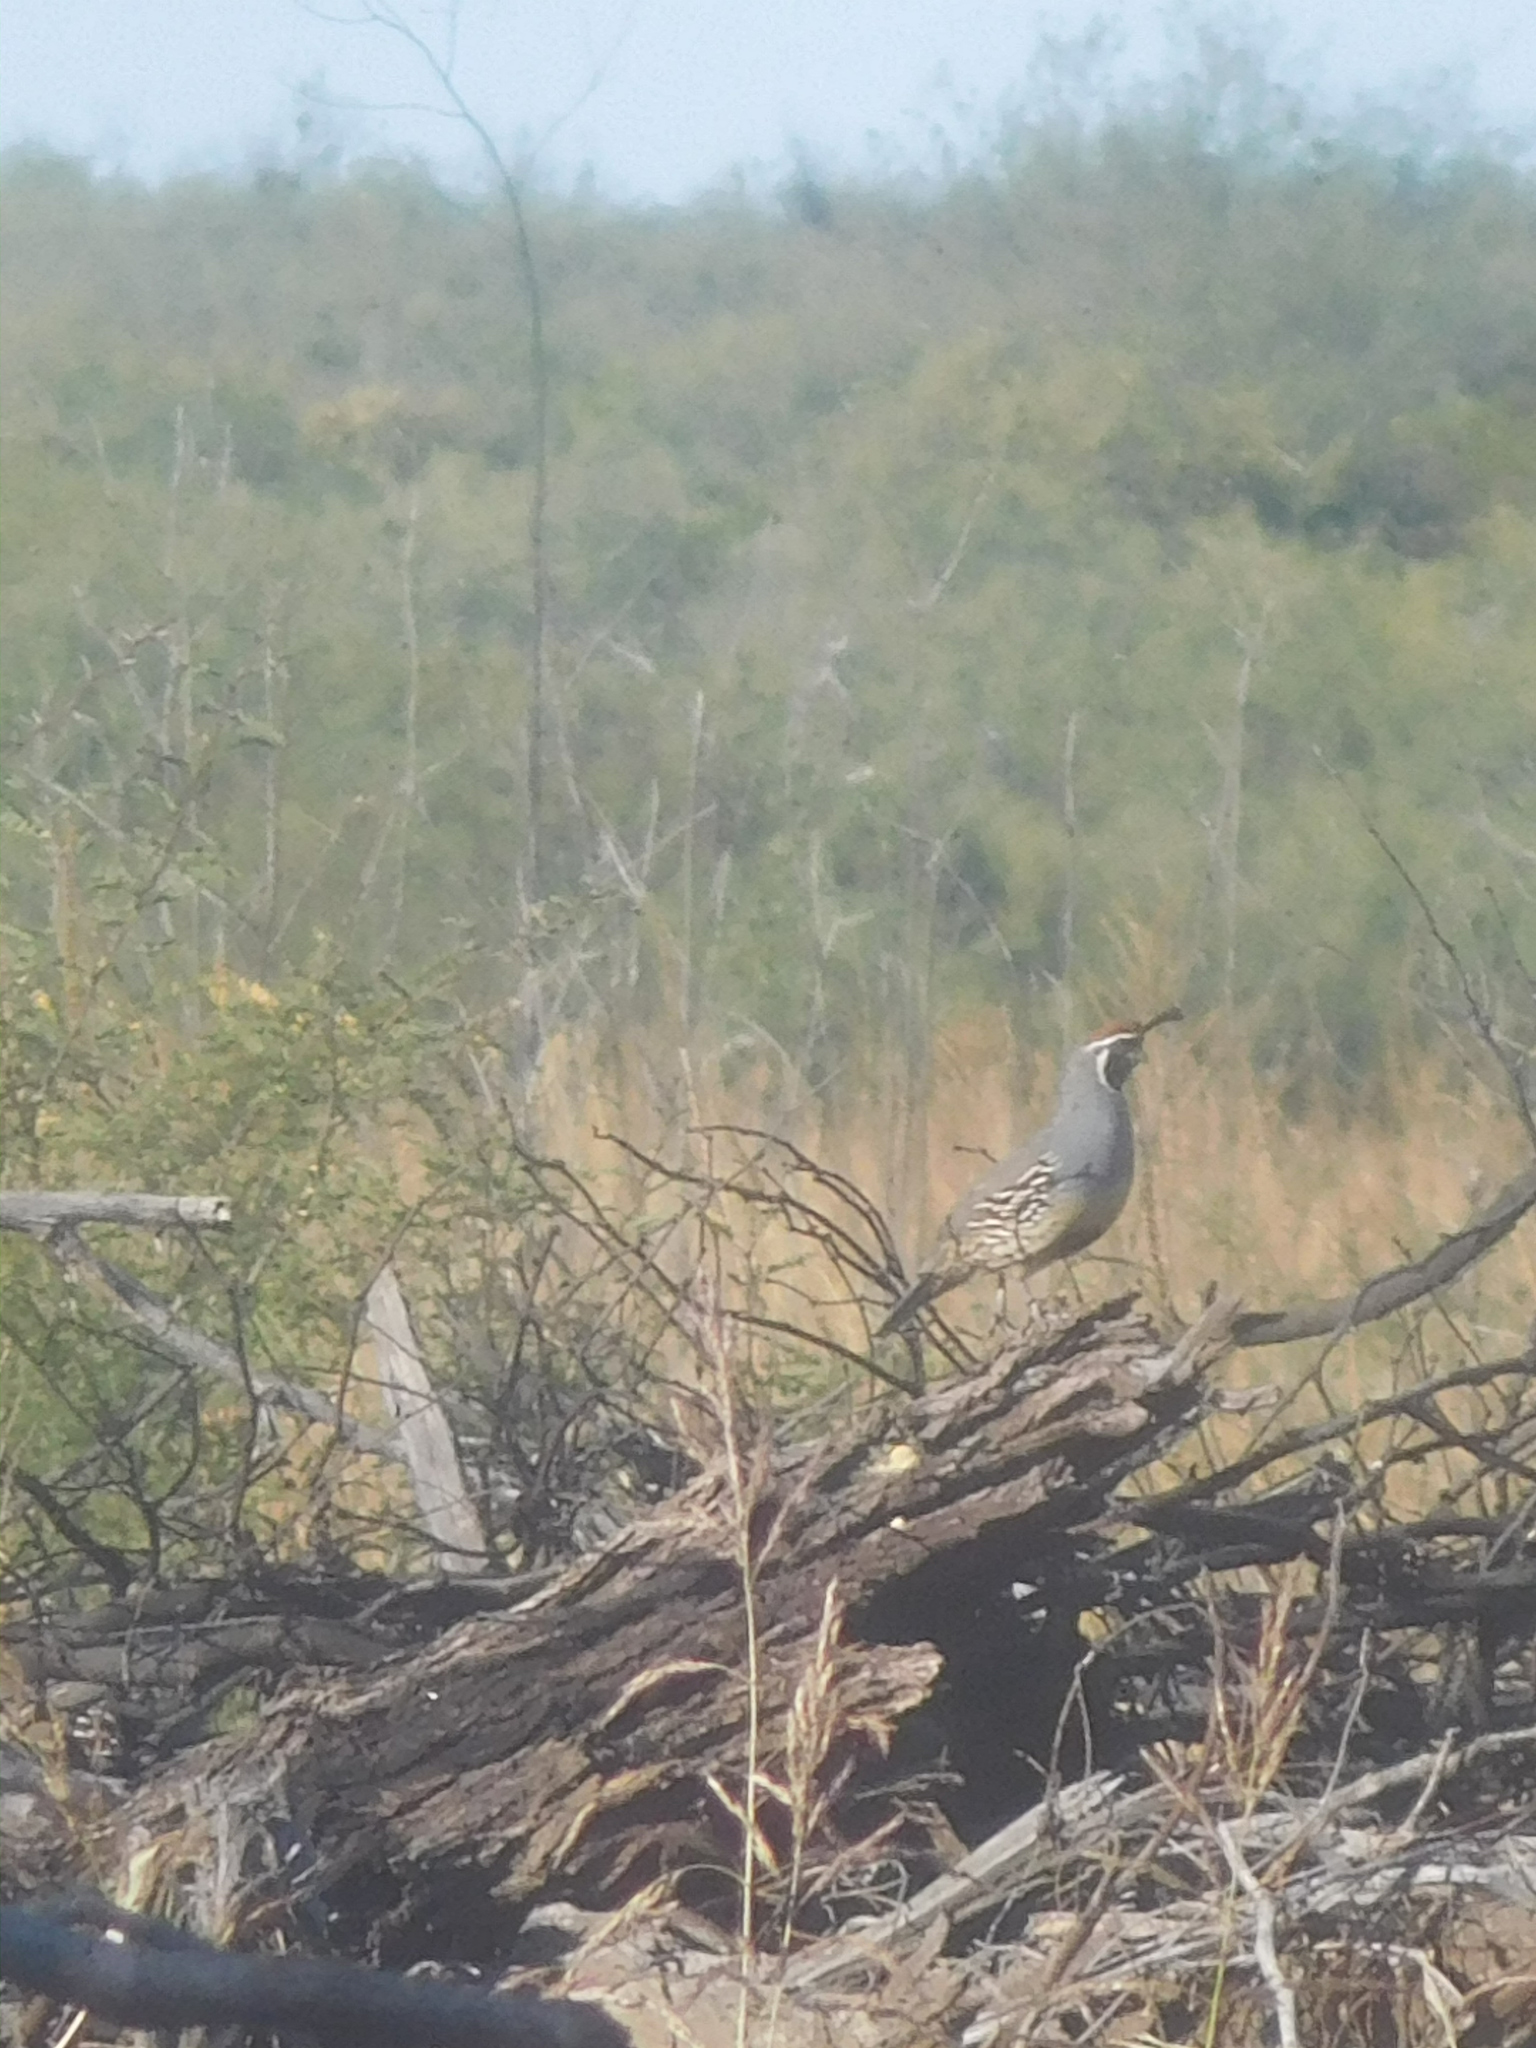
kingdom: Animalia
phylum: Chordata
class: Aves
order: Galliformes
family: Odontophoridae
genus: Callipepla
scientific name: Callipepla gambelii
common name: Gambel's quail
